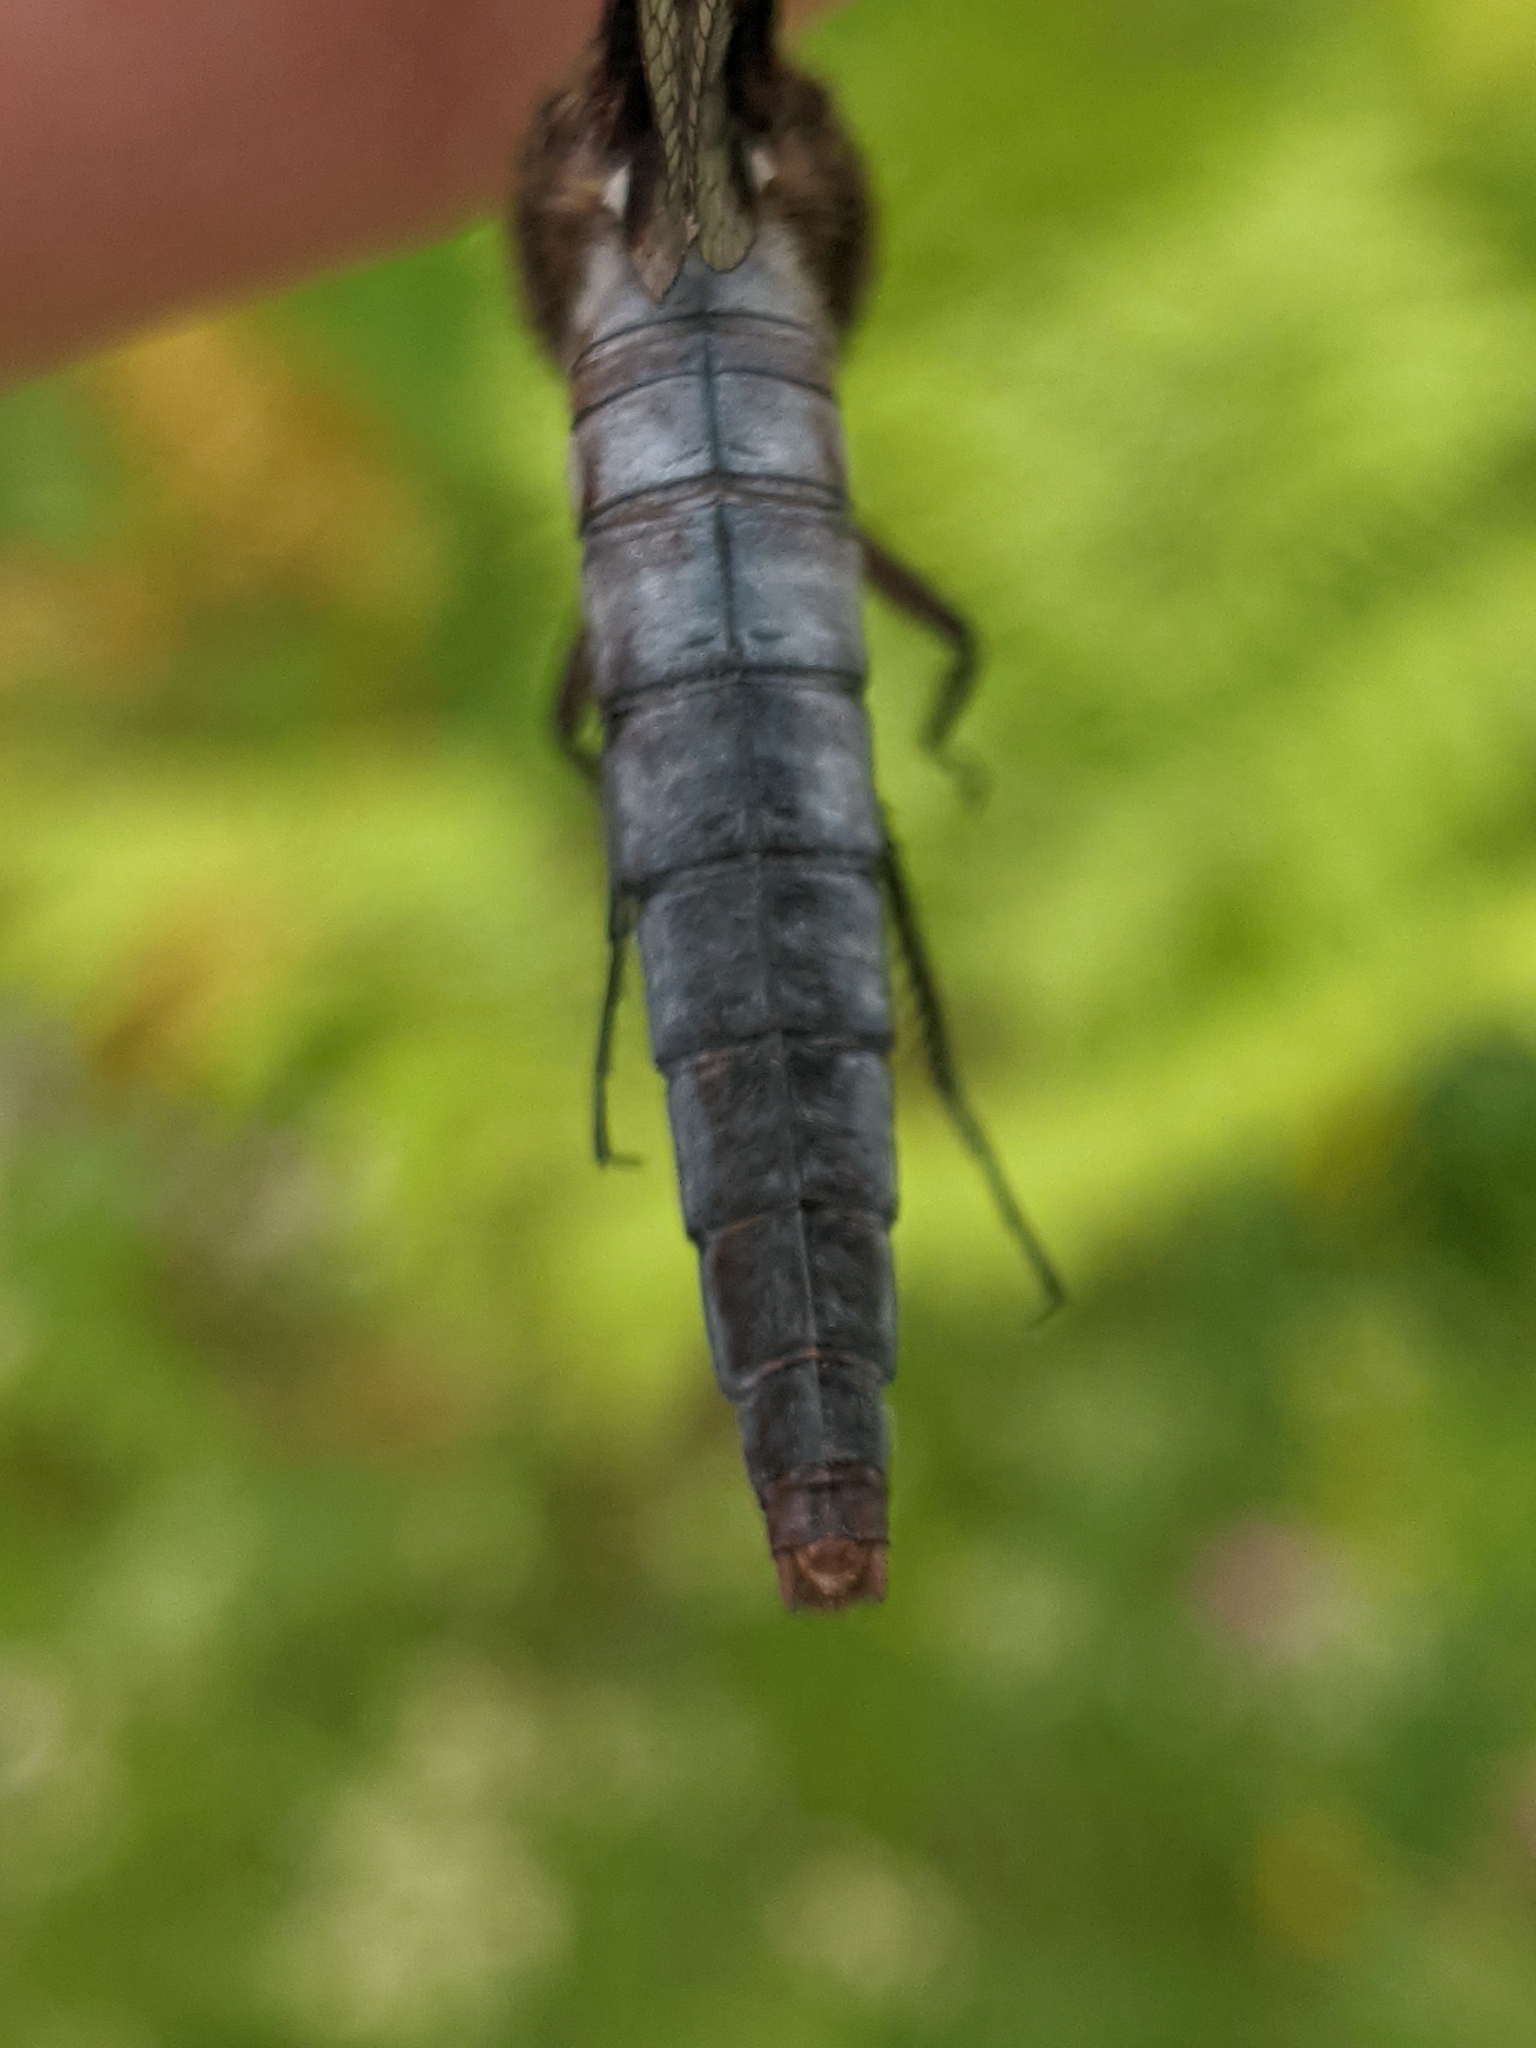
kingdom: Animalia
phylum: Arthropoda
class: Insecta
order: Odonata
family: Libellulidae
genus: Ladona
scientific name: Ladona julia
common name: Chalk-fronted corporal
